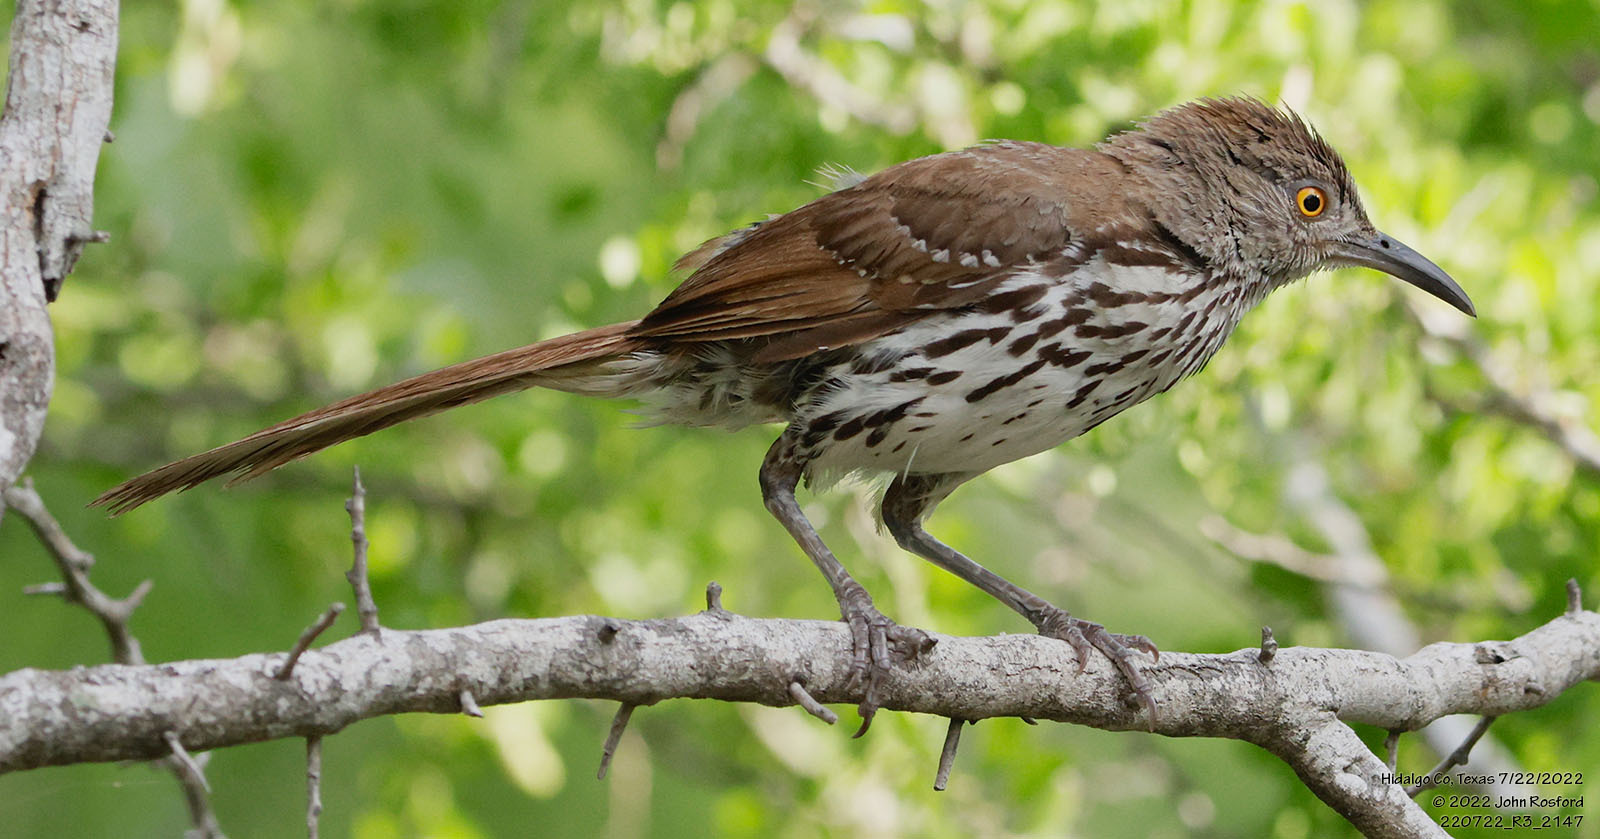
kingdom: Animalia
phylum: Chordata
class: Aves
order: Passeriformes
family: Mimidae
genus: Toxostoma
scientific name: Toxostoma longirostre
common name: Long-billed thrasher
